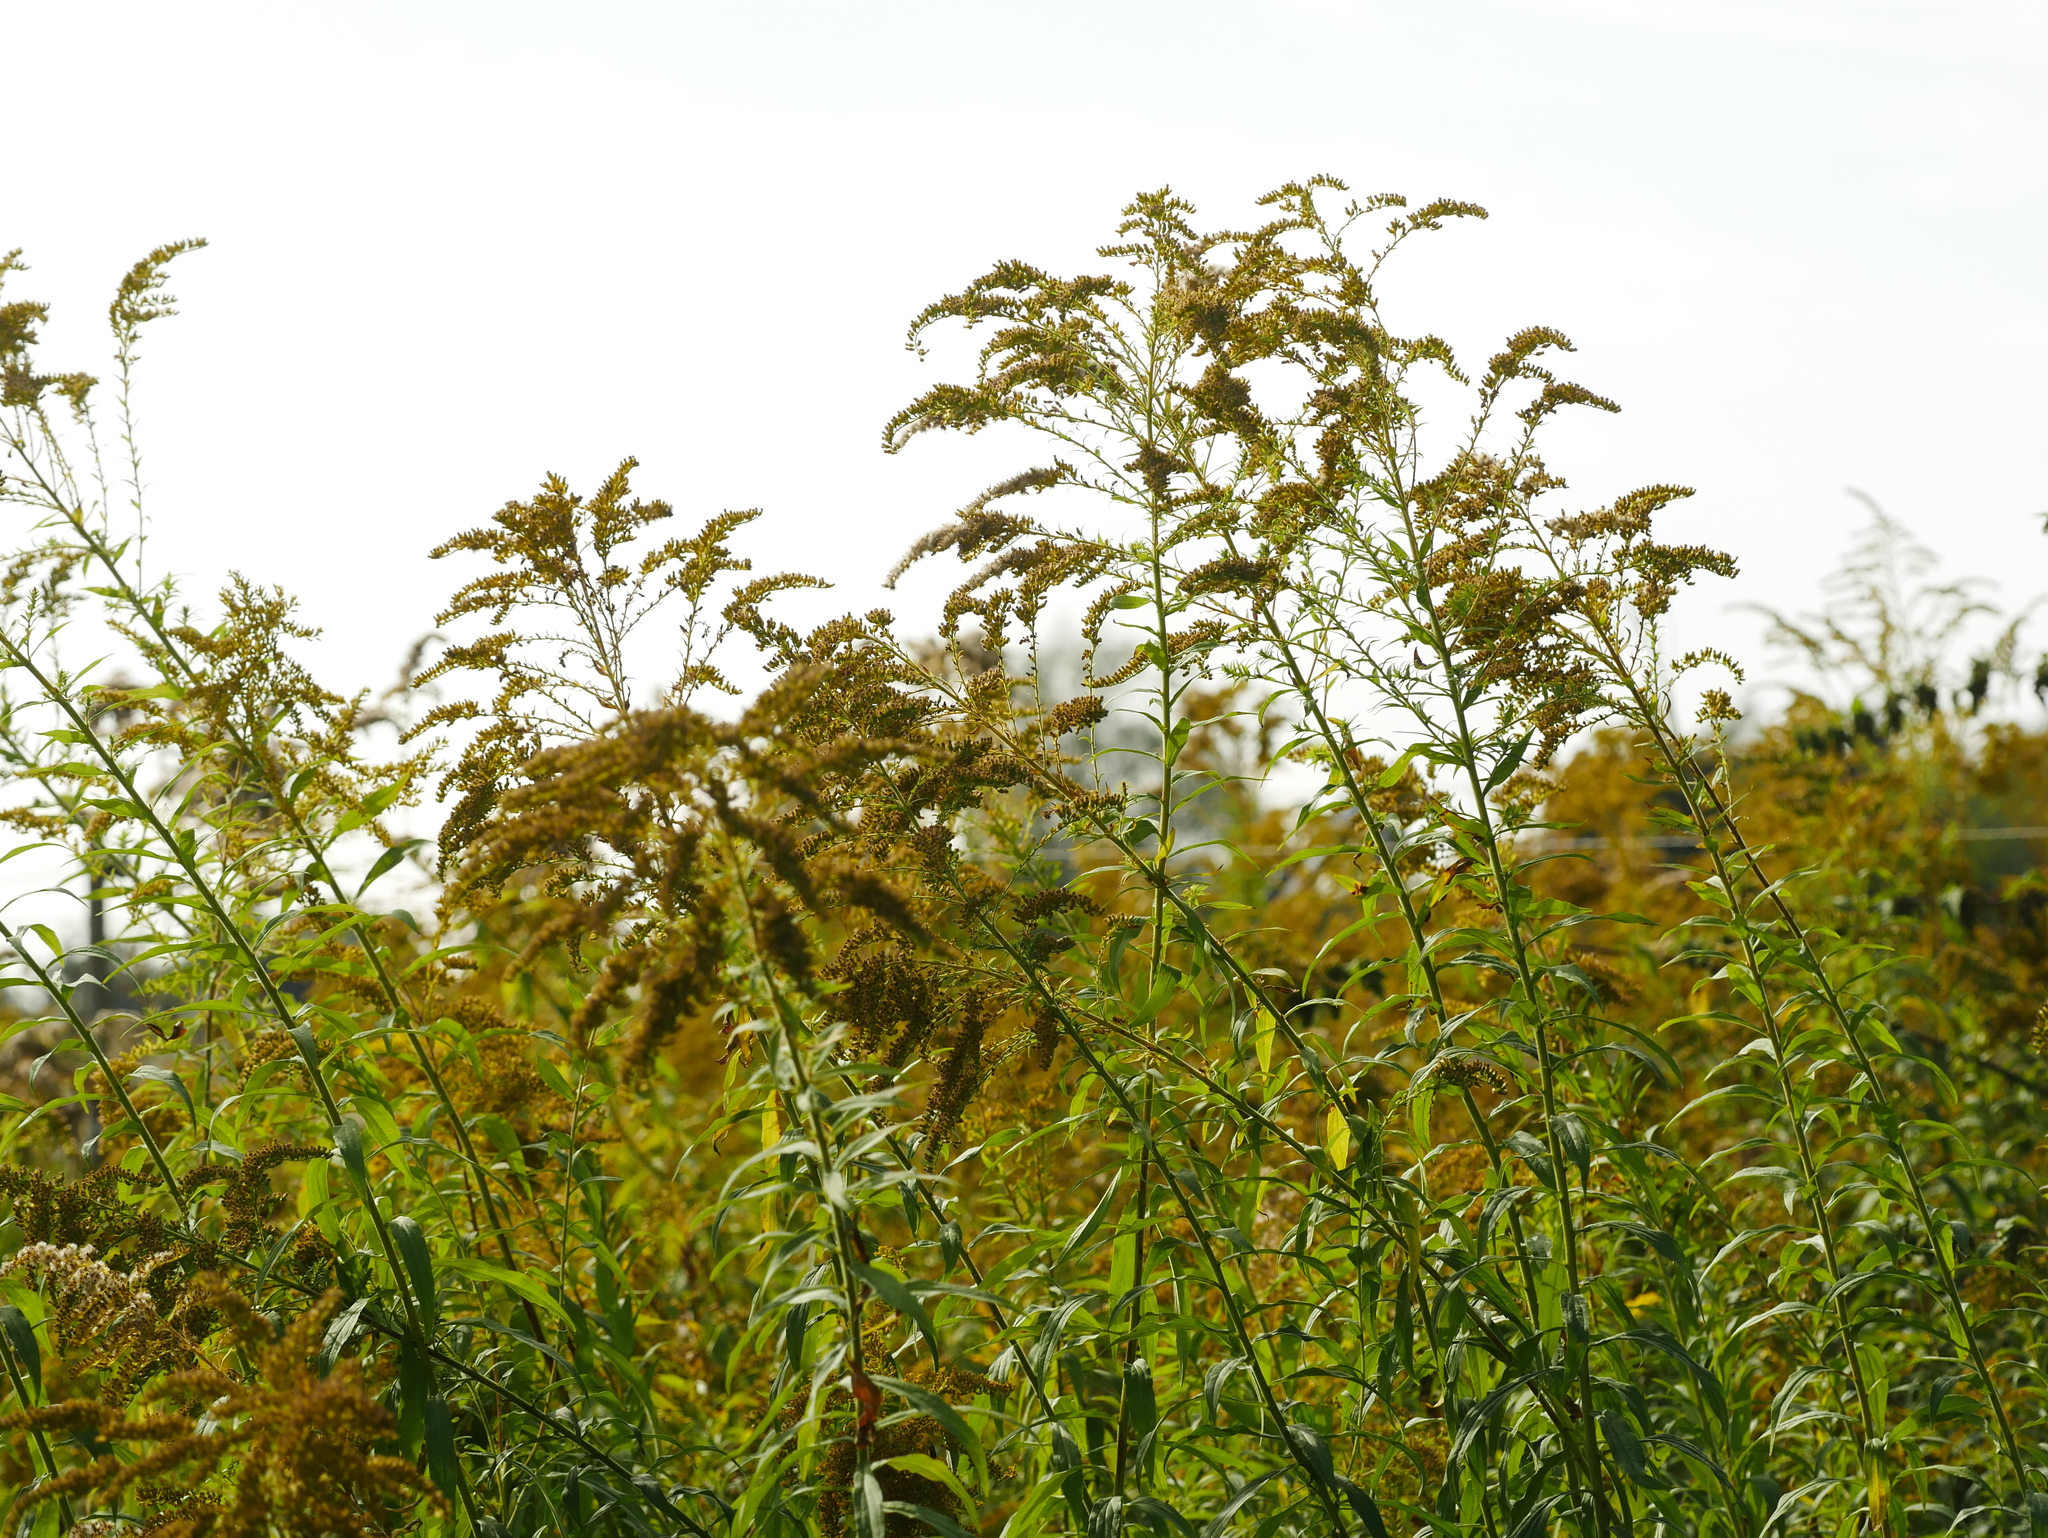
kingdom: Plantae
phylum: Tracheophyta
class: Magnoliopsida
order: Asterales
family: Asteraceae
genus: Solidago
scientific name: Solidago canadensis
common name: Canada goldenrod
